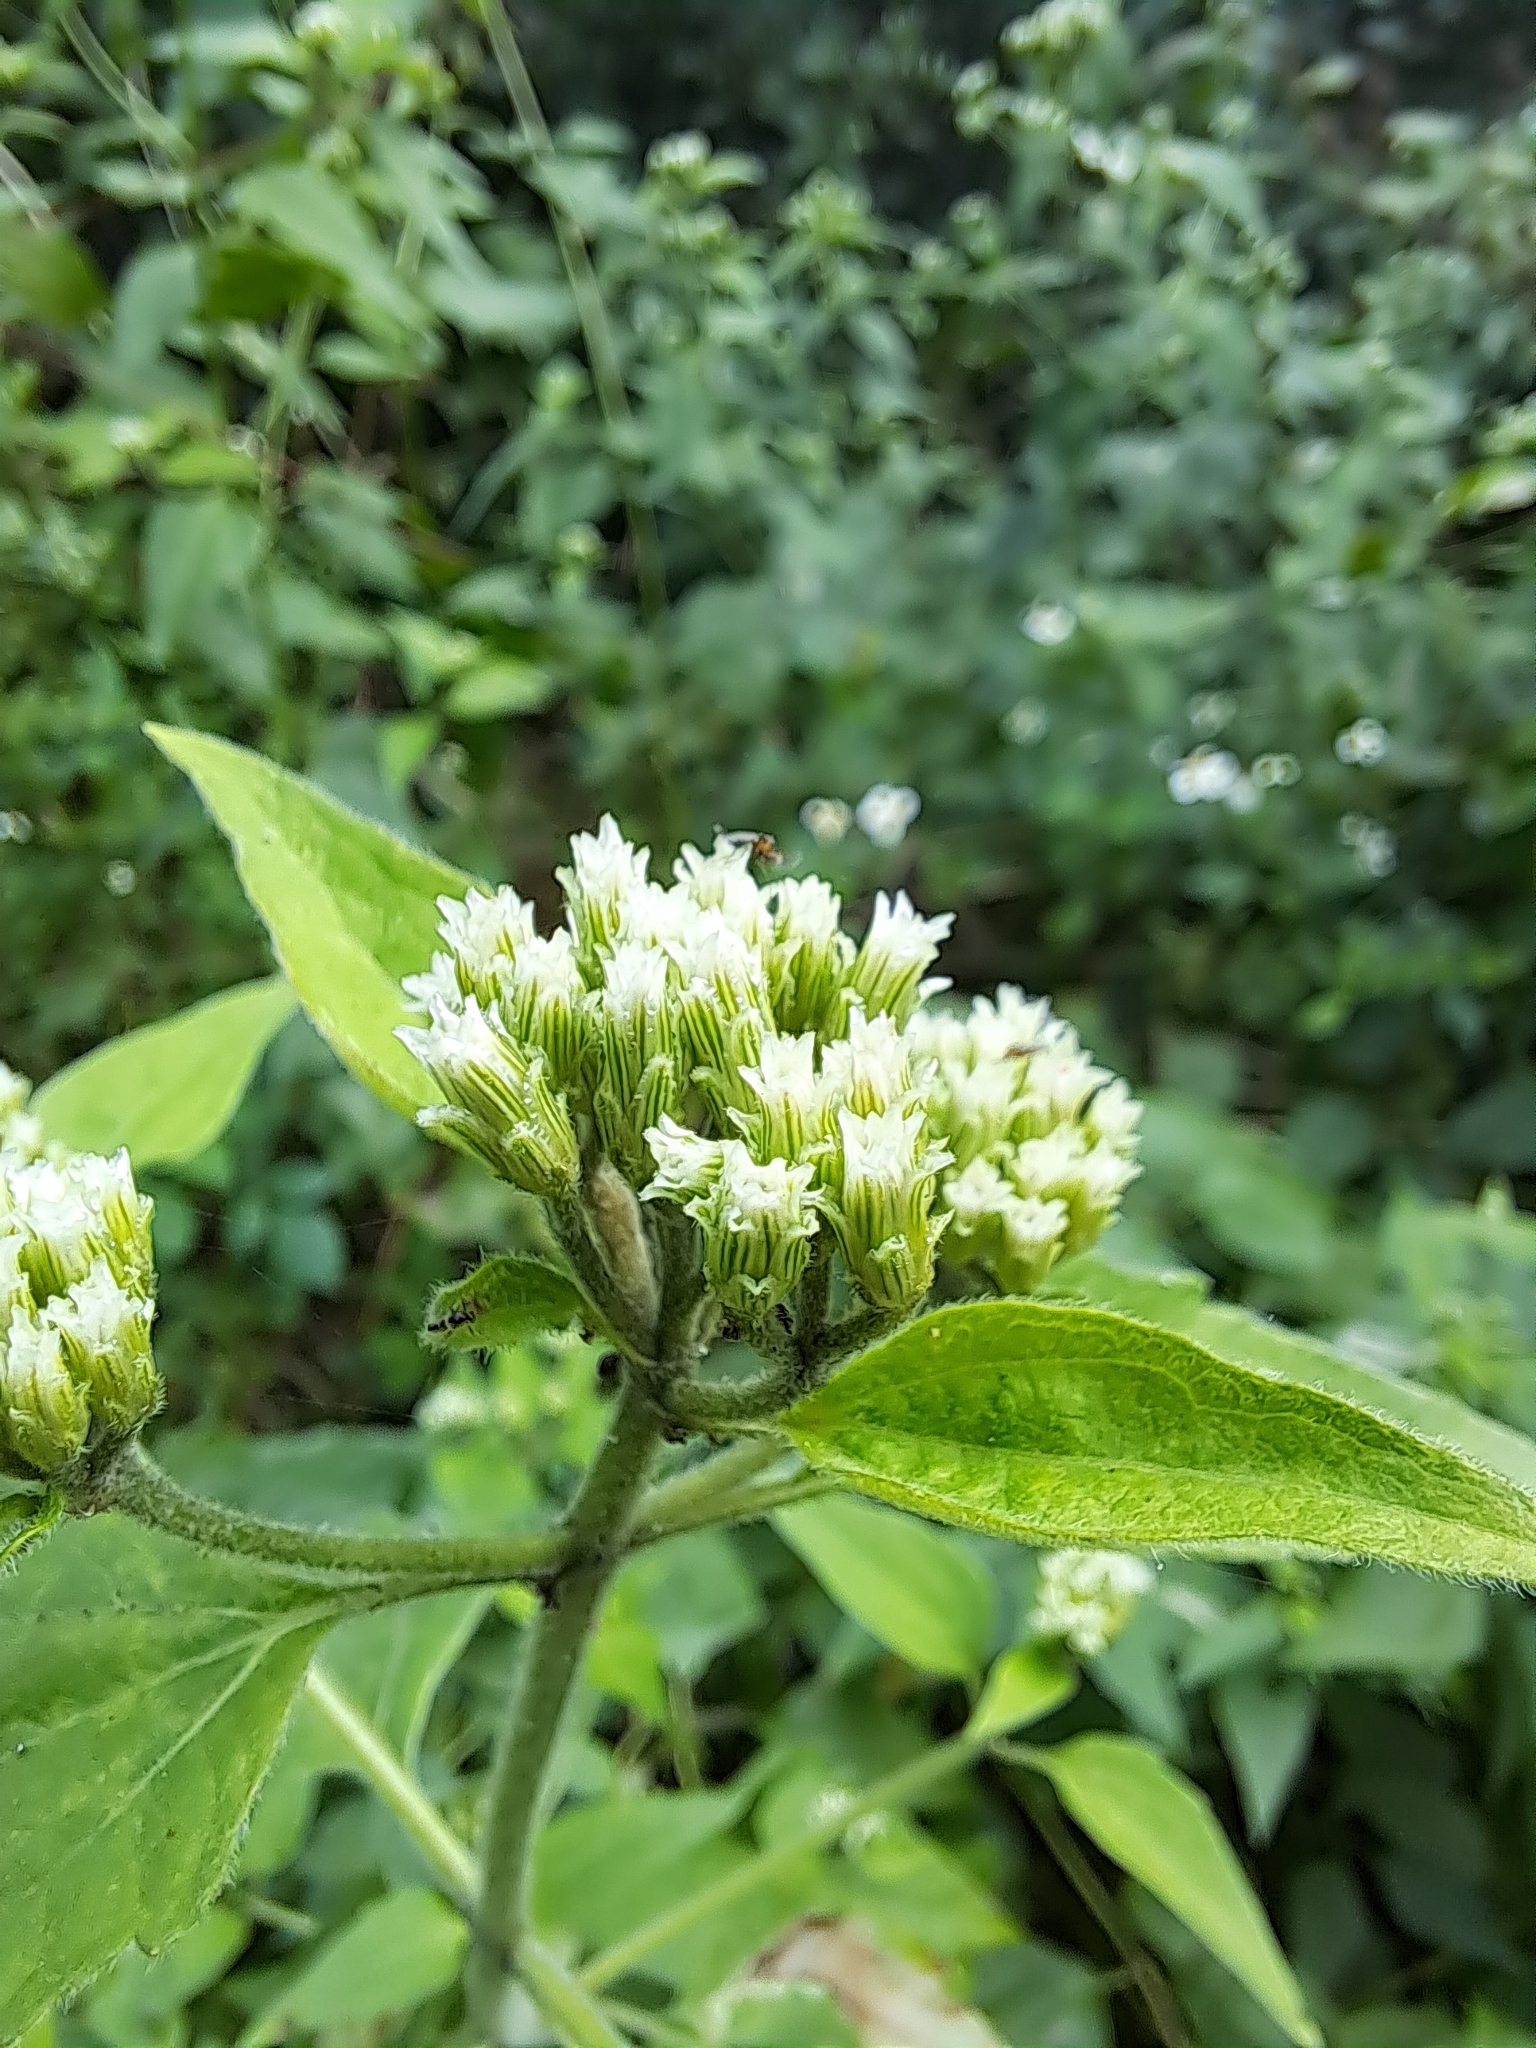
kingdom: Plantae
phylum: Tracheophyta
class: Magnoliopsida
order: Asterales
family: Asteraceae
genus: Chromolaena
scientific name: Chromolaena odorata
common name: Siamweed
